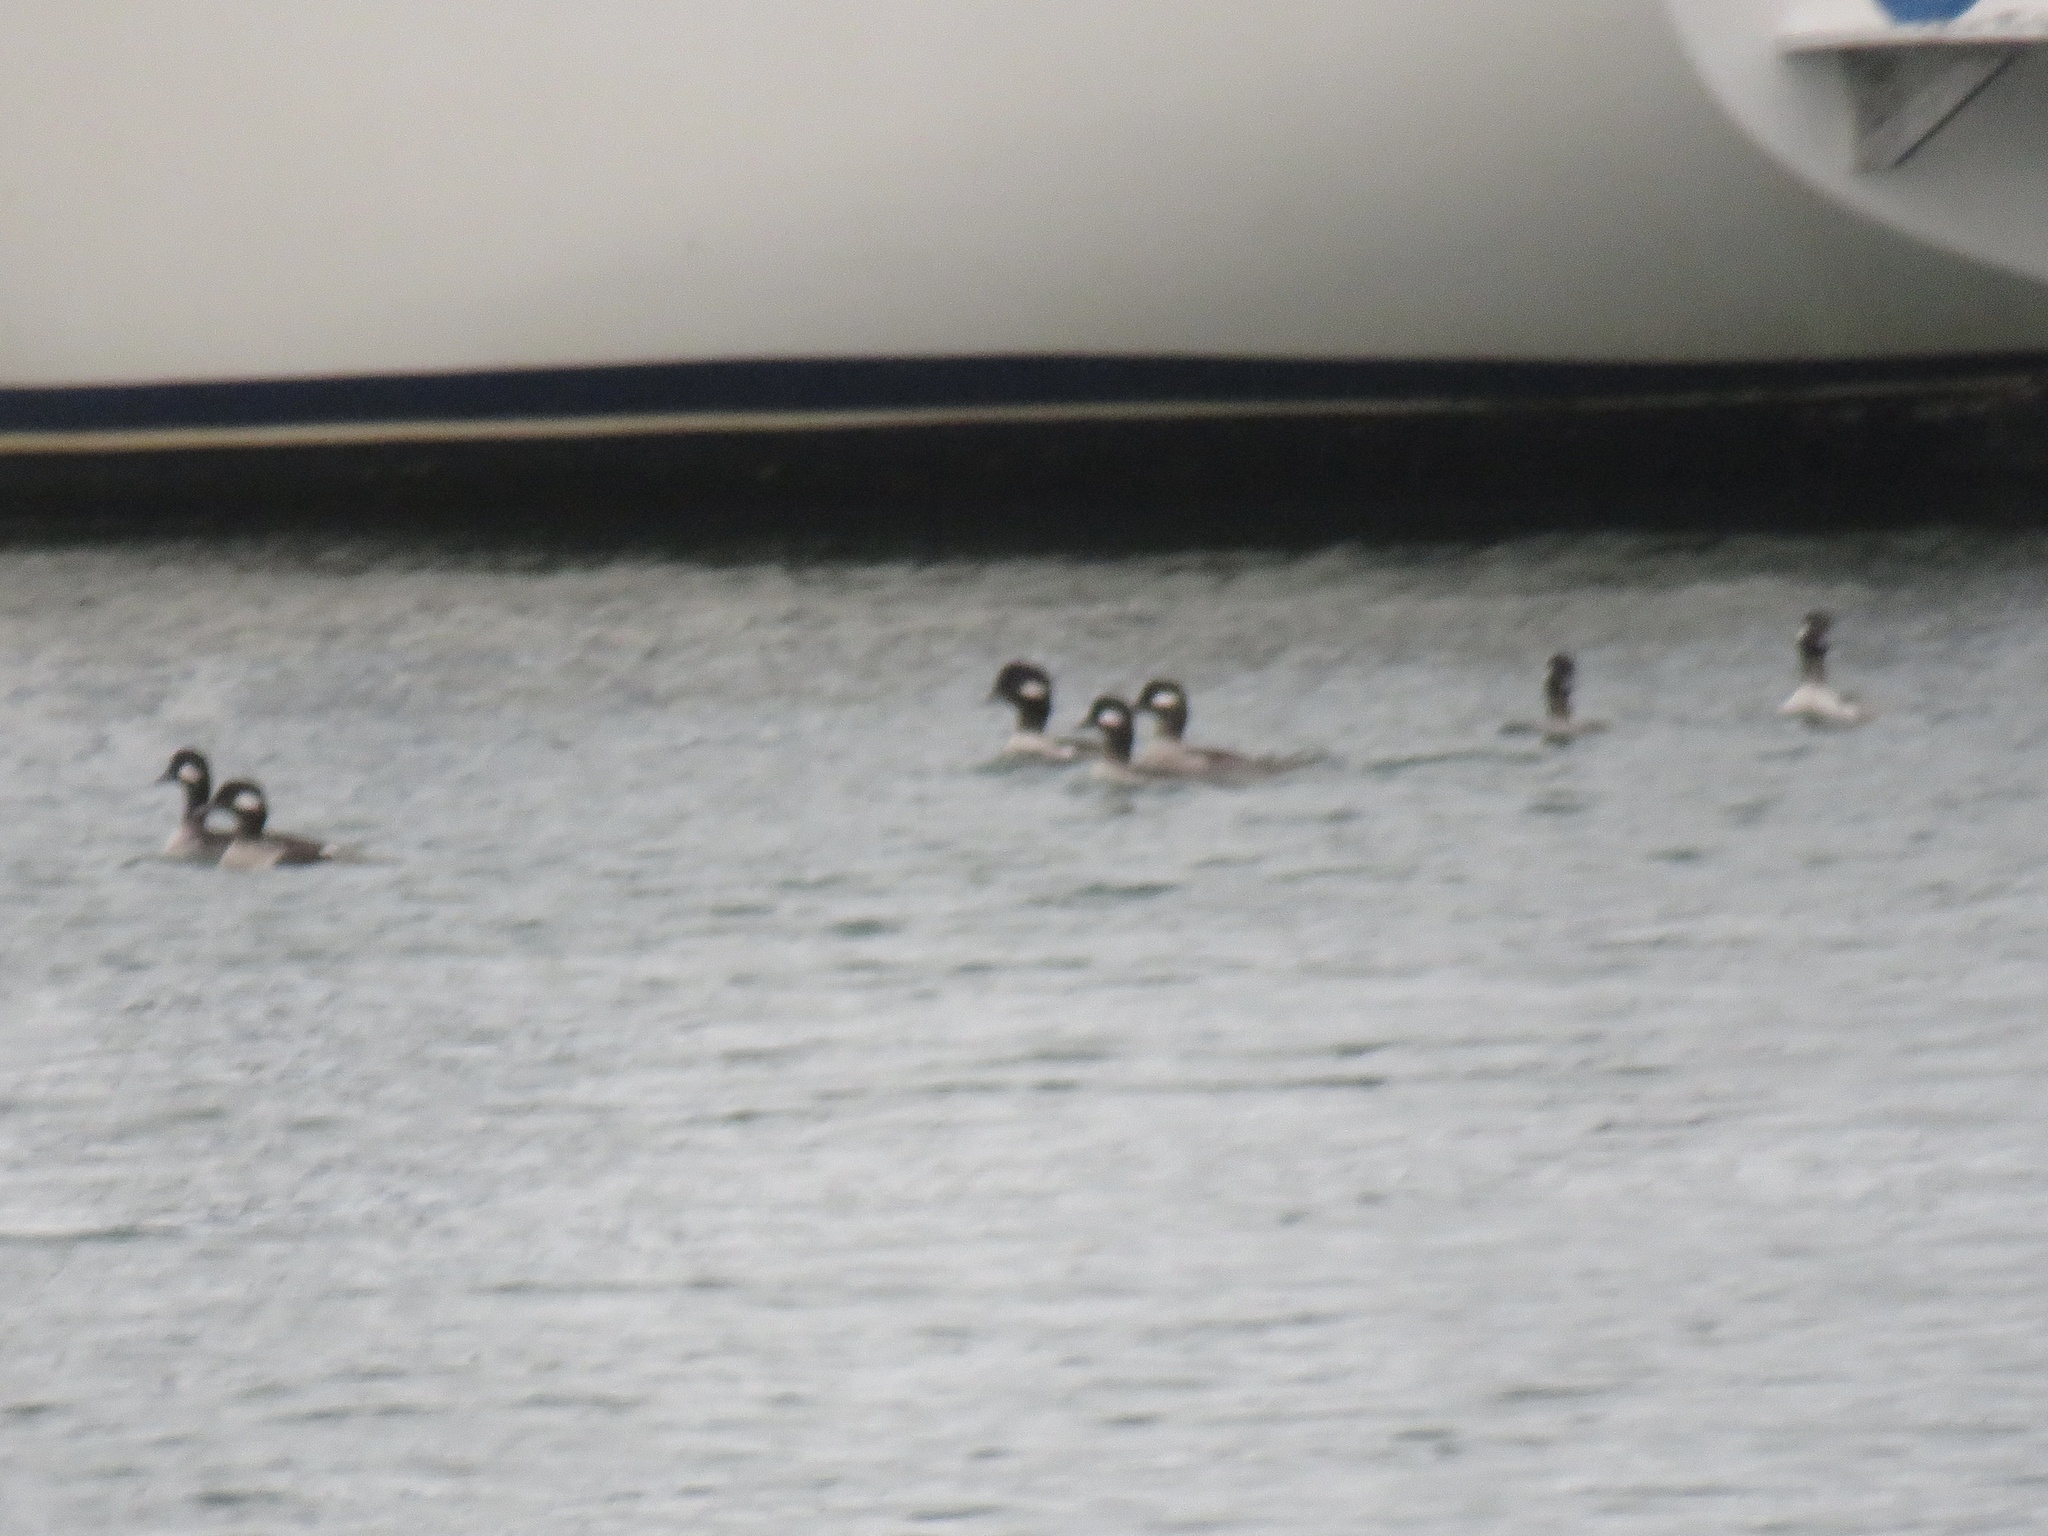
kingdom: Animalia
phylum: Chordata
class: Aves
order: Anseriformes
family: Anatidae
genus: Bucephala
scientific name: Bucephala albeola
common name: Bufflehead
